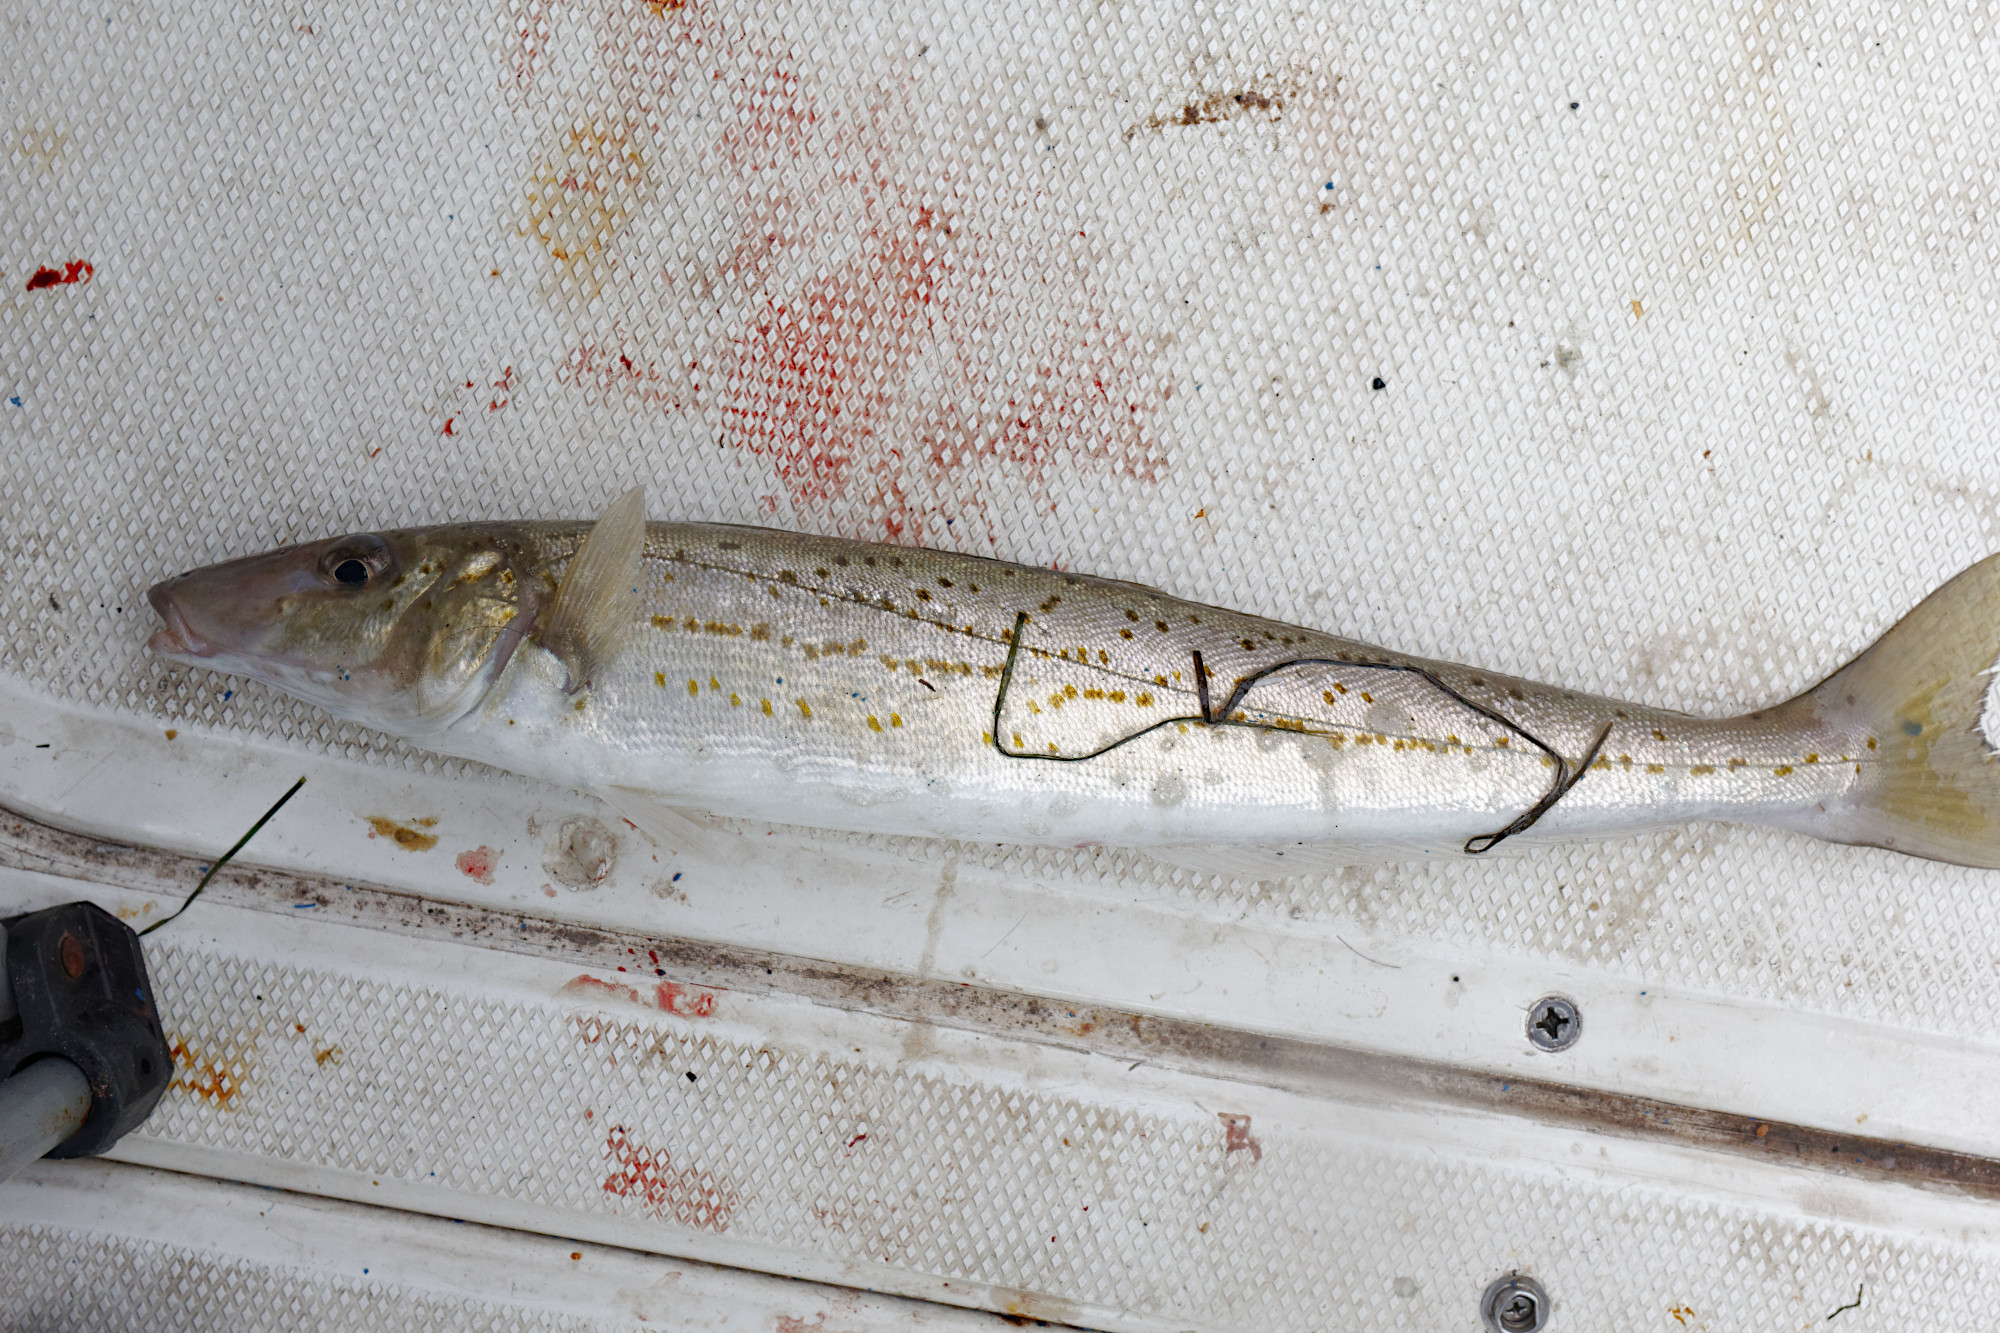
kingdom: Animalia
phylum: Chordata
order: Perciformes
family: Sillaginidae
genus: Sillaginodes
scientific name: Sillaginodes punctatus
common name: King george whiting
